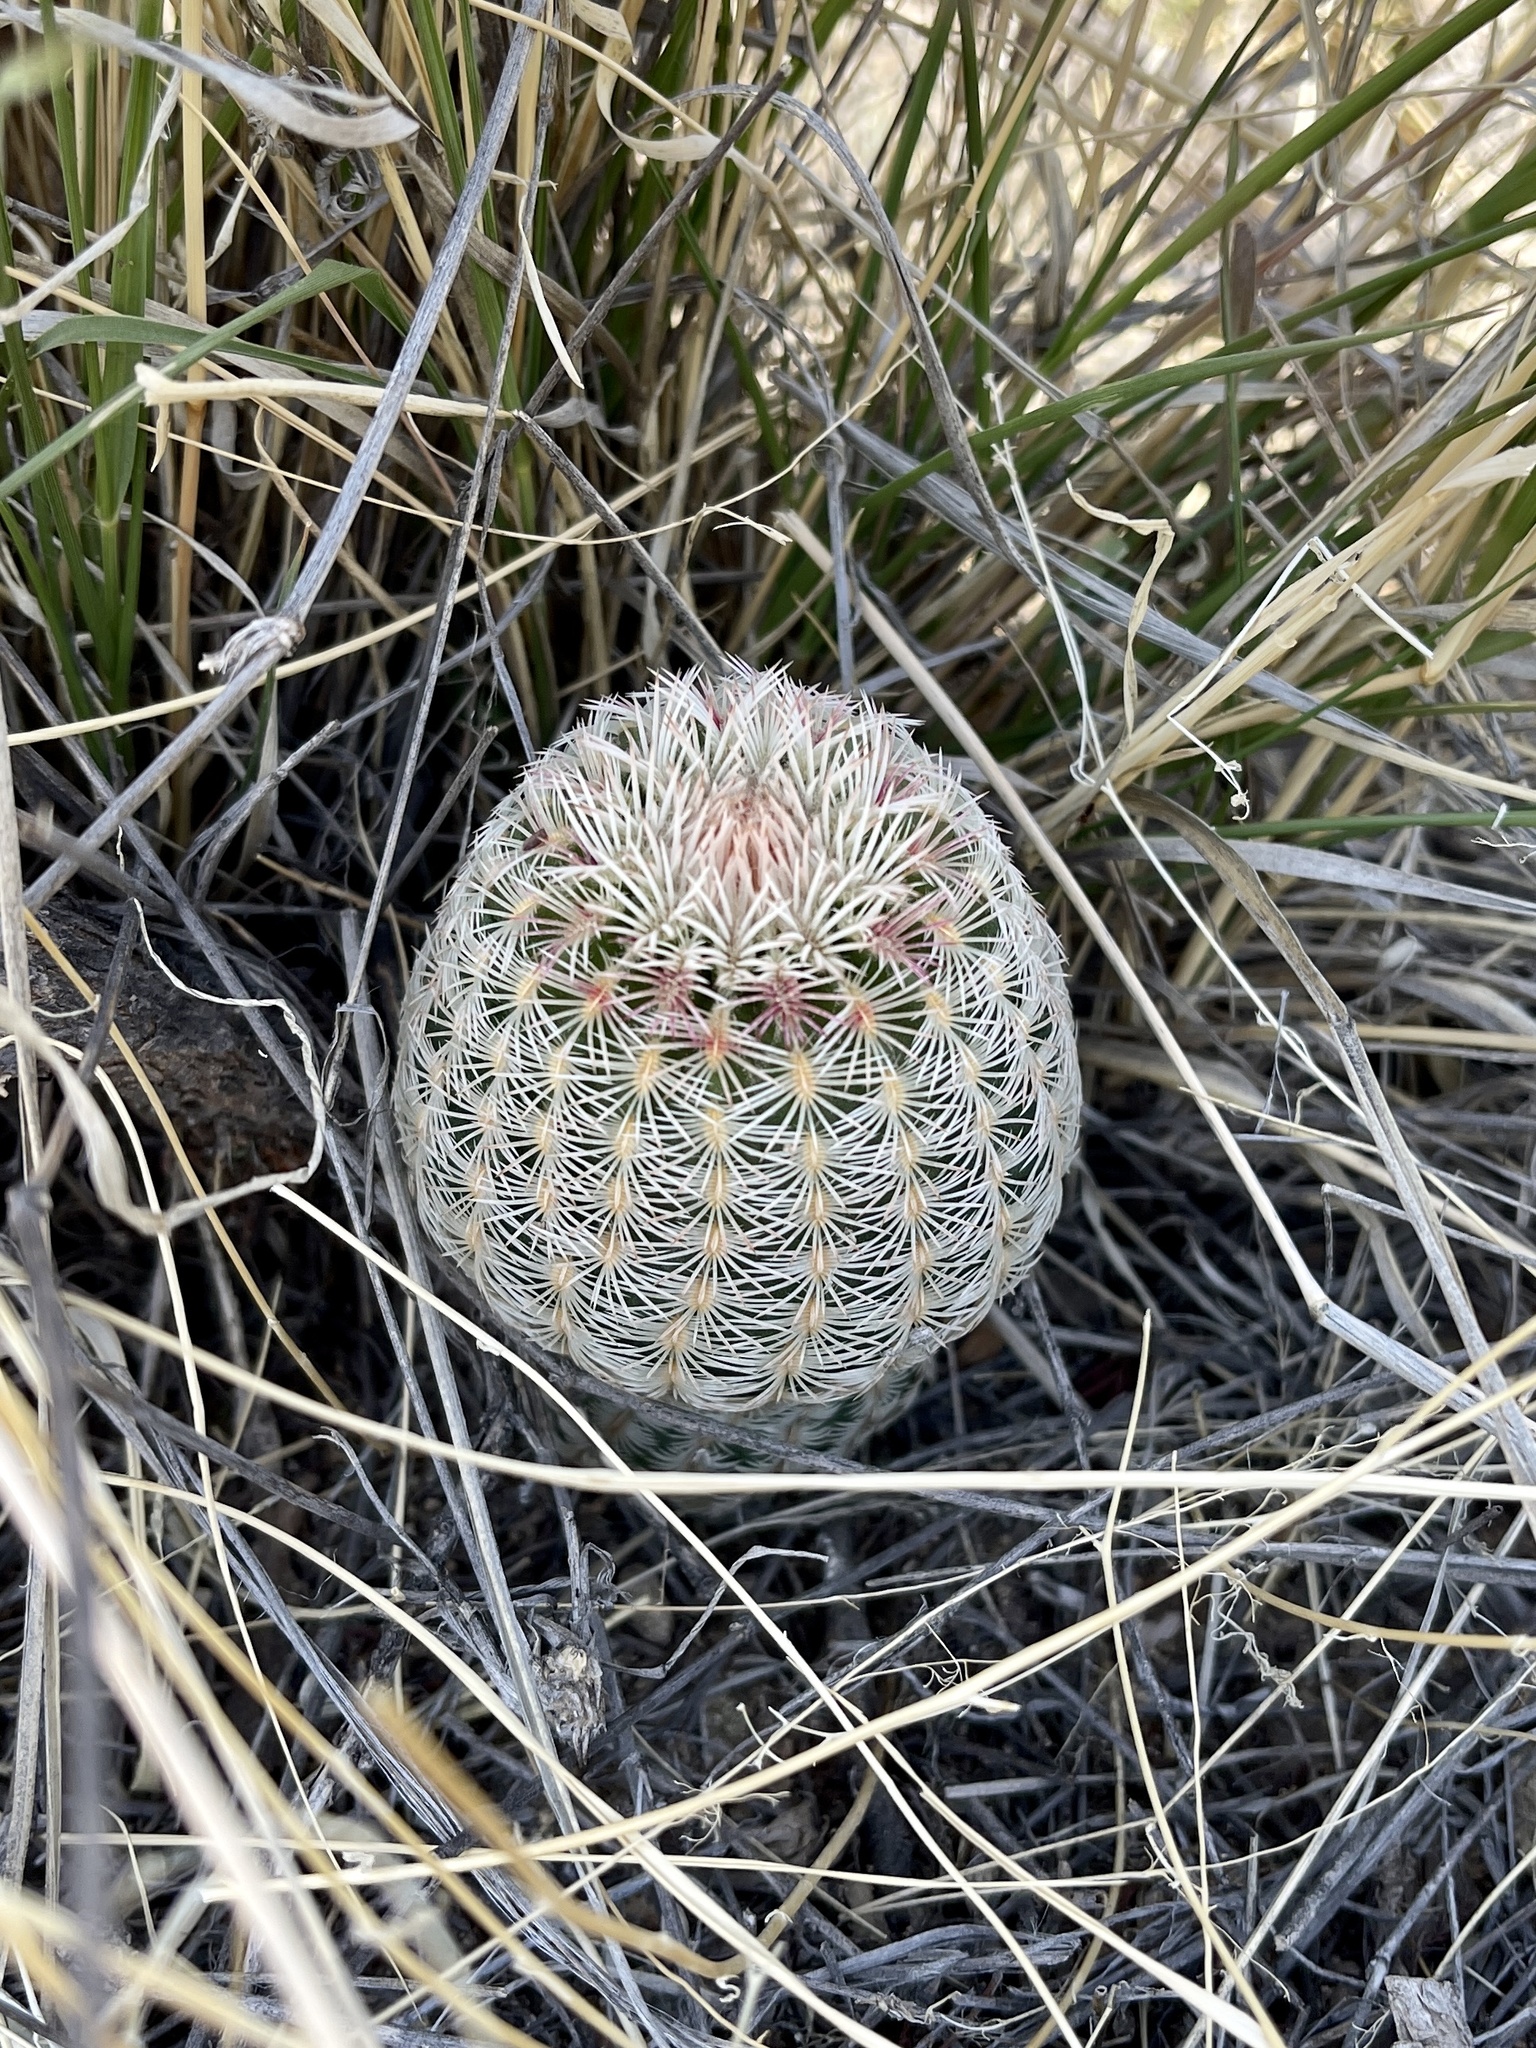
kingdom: Plantae
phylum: Tracheophyta
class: Magnoliopsida
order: Caryophyllales
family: Cactaceae
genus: Echinocereus
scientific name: Echinocereus rigidissimus
